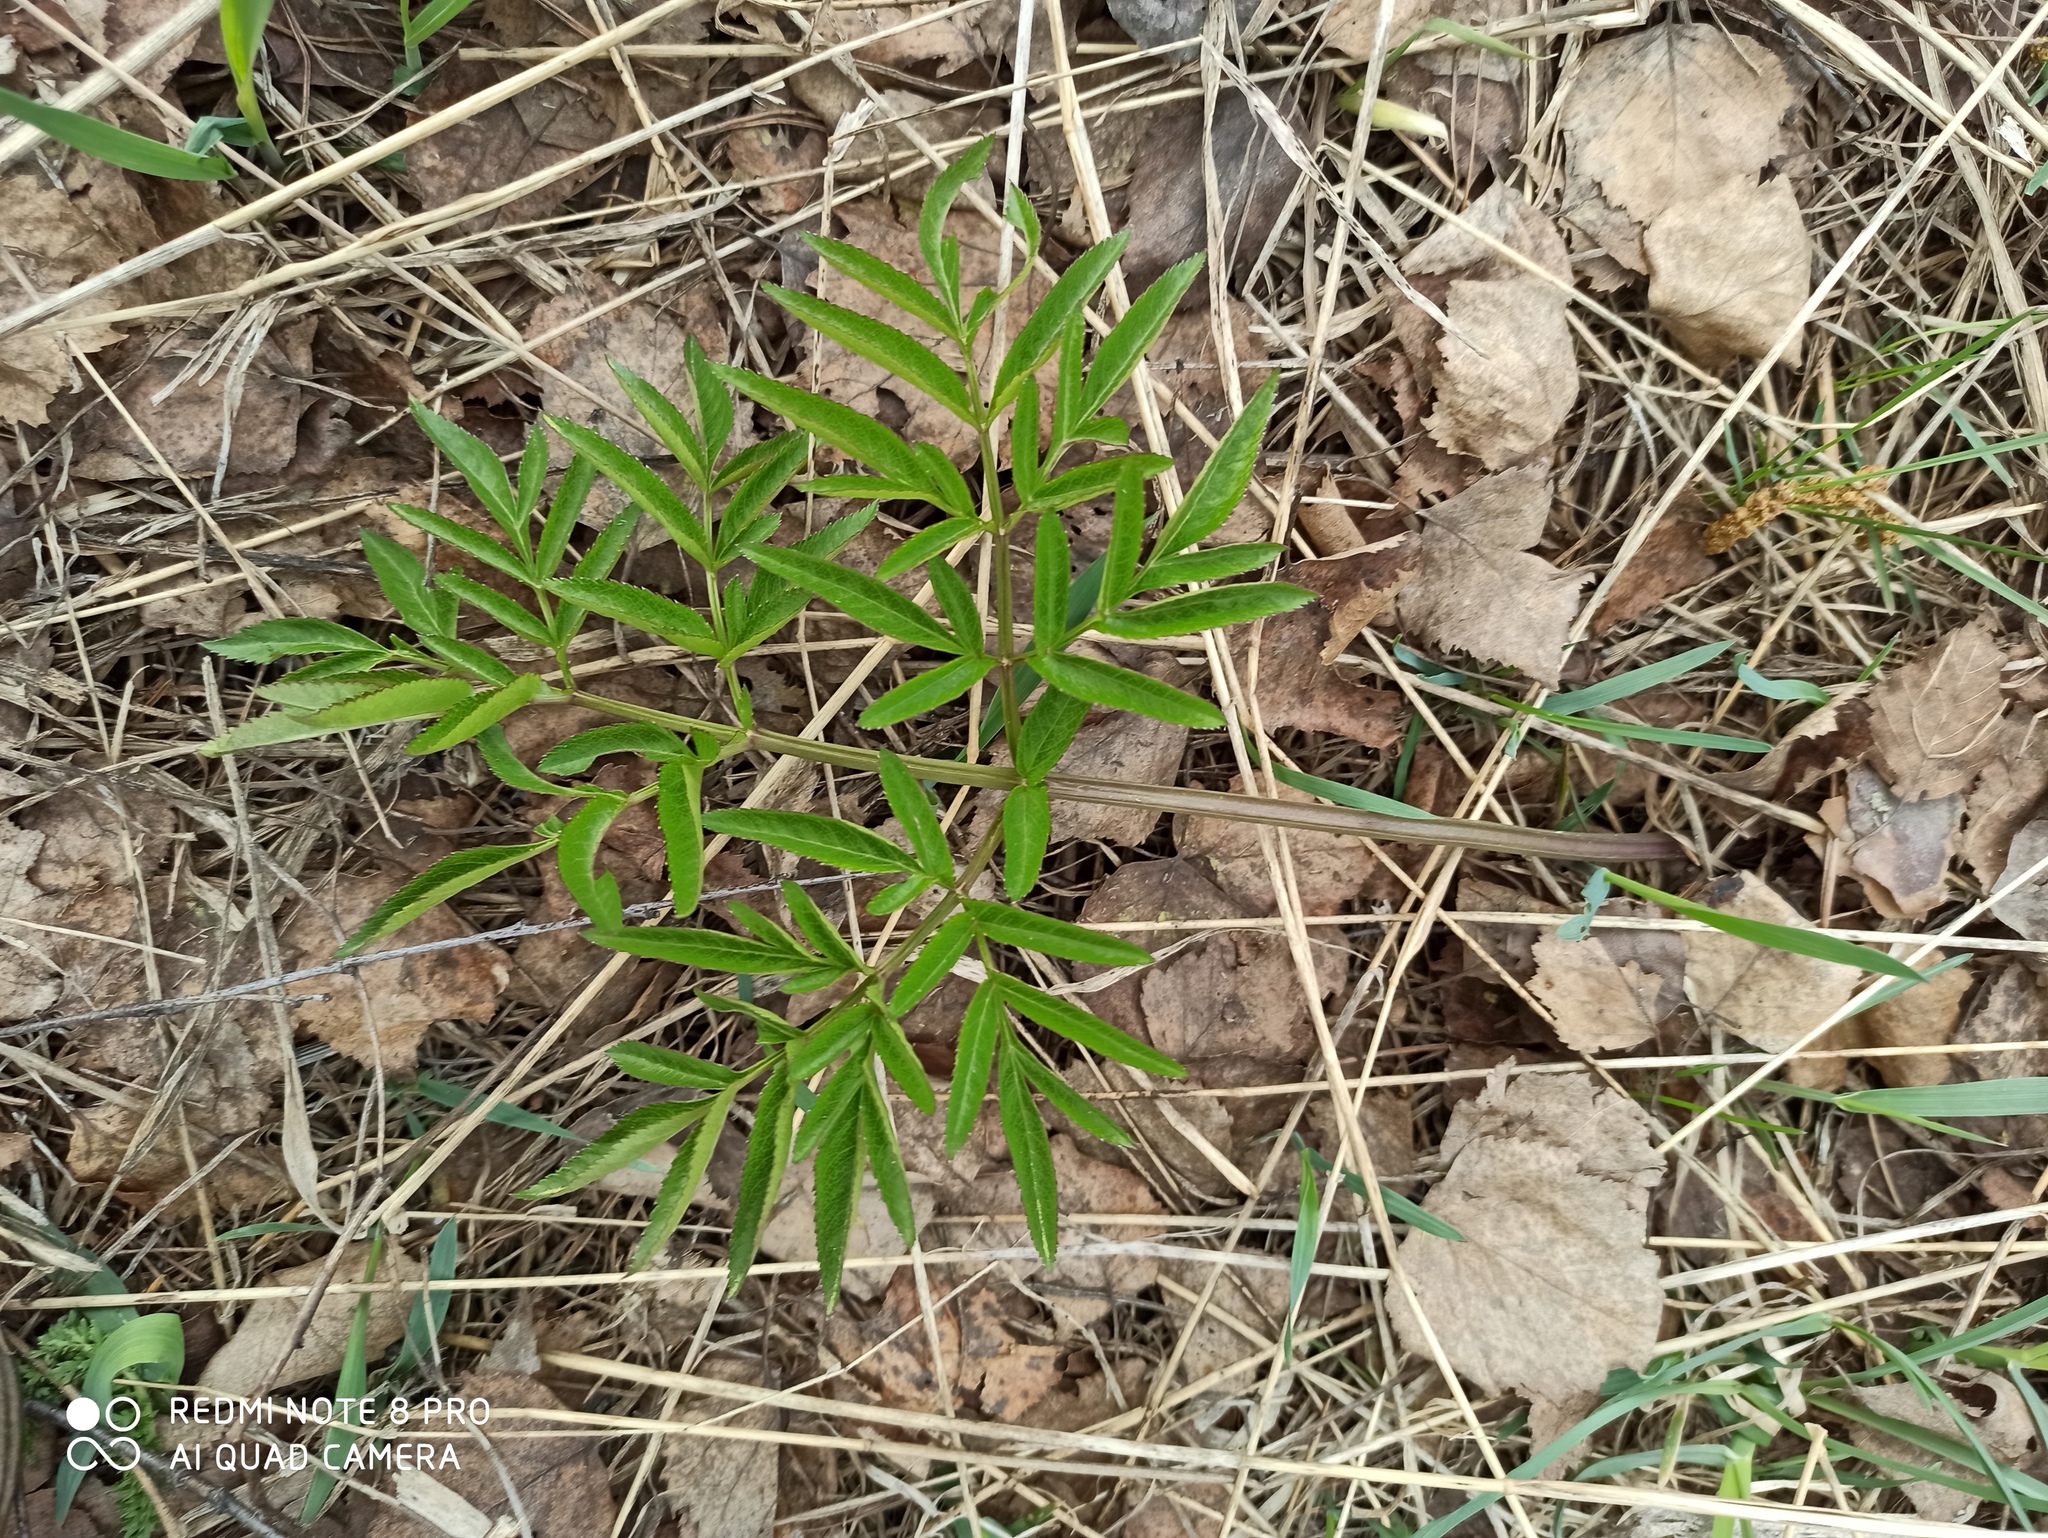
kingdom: Plantae
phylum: Tracheophyta
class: Magnoliopsida
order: Apiales
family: Apiaceae
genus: Angelica
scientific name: Angelica sylvestris
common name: Wild angelica
